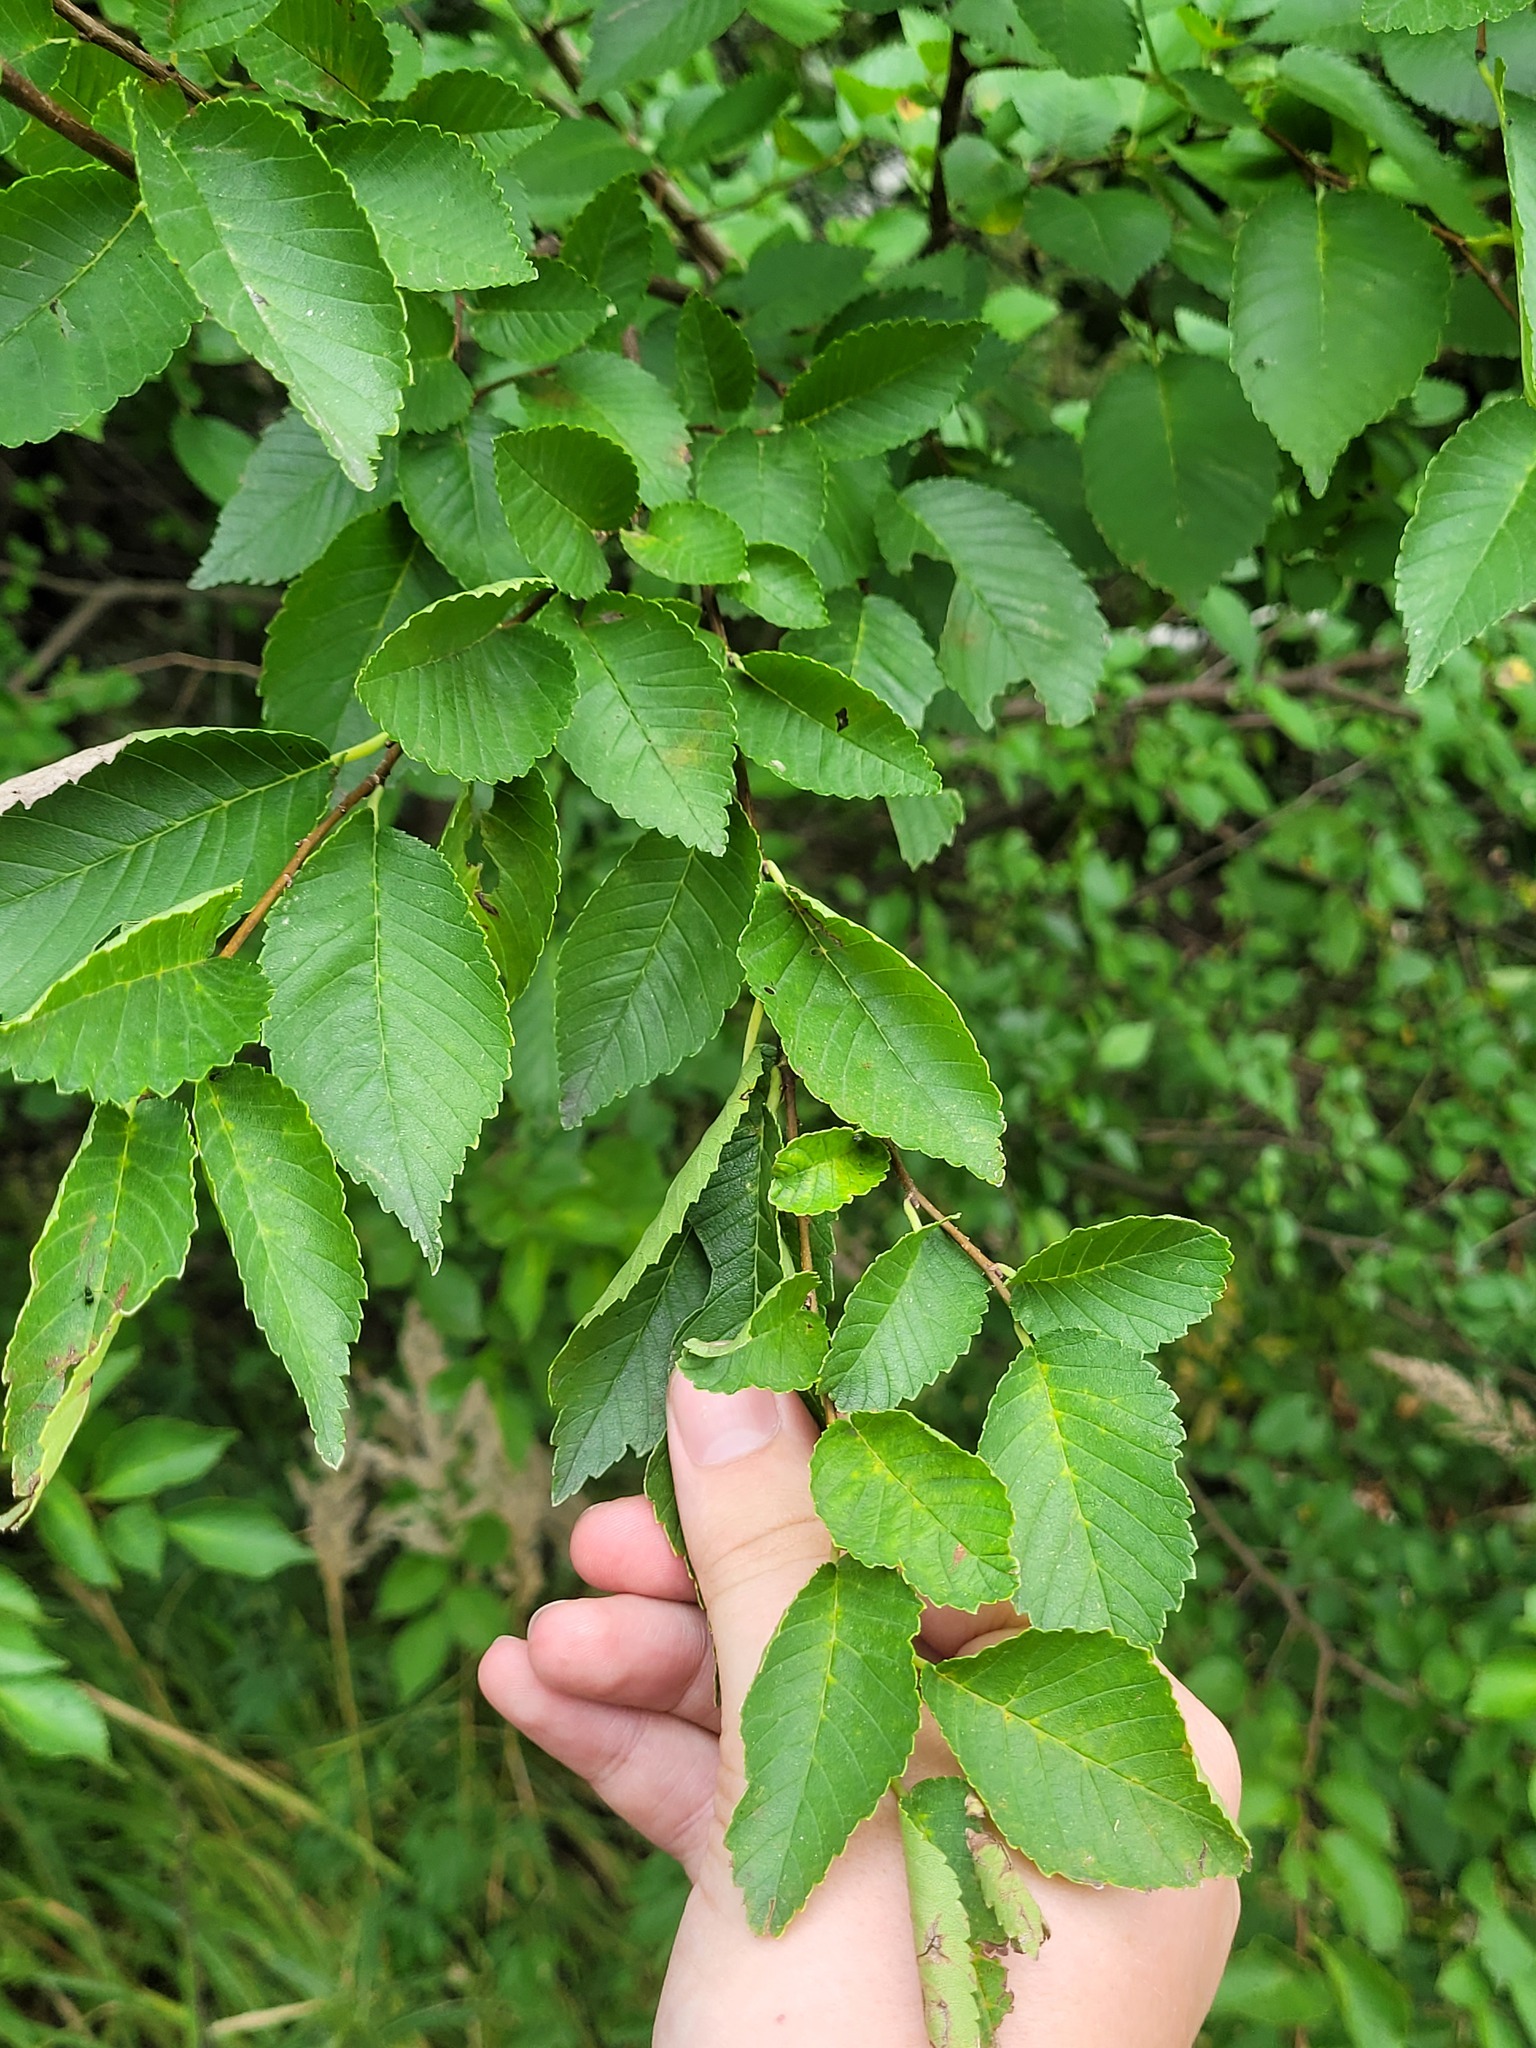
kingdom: Plantae
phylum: Tracheophyta
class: Magnoliopsida
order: Rosales
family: Ulmaceae
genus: Ulmus
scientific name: Ulmus pumila
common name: Siberian elm
